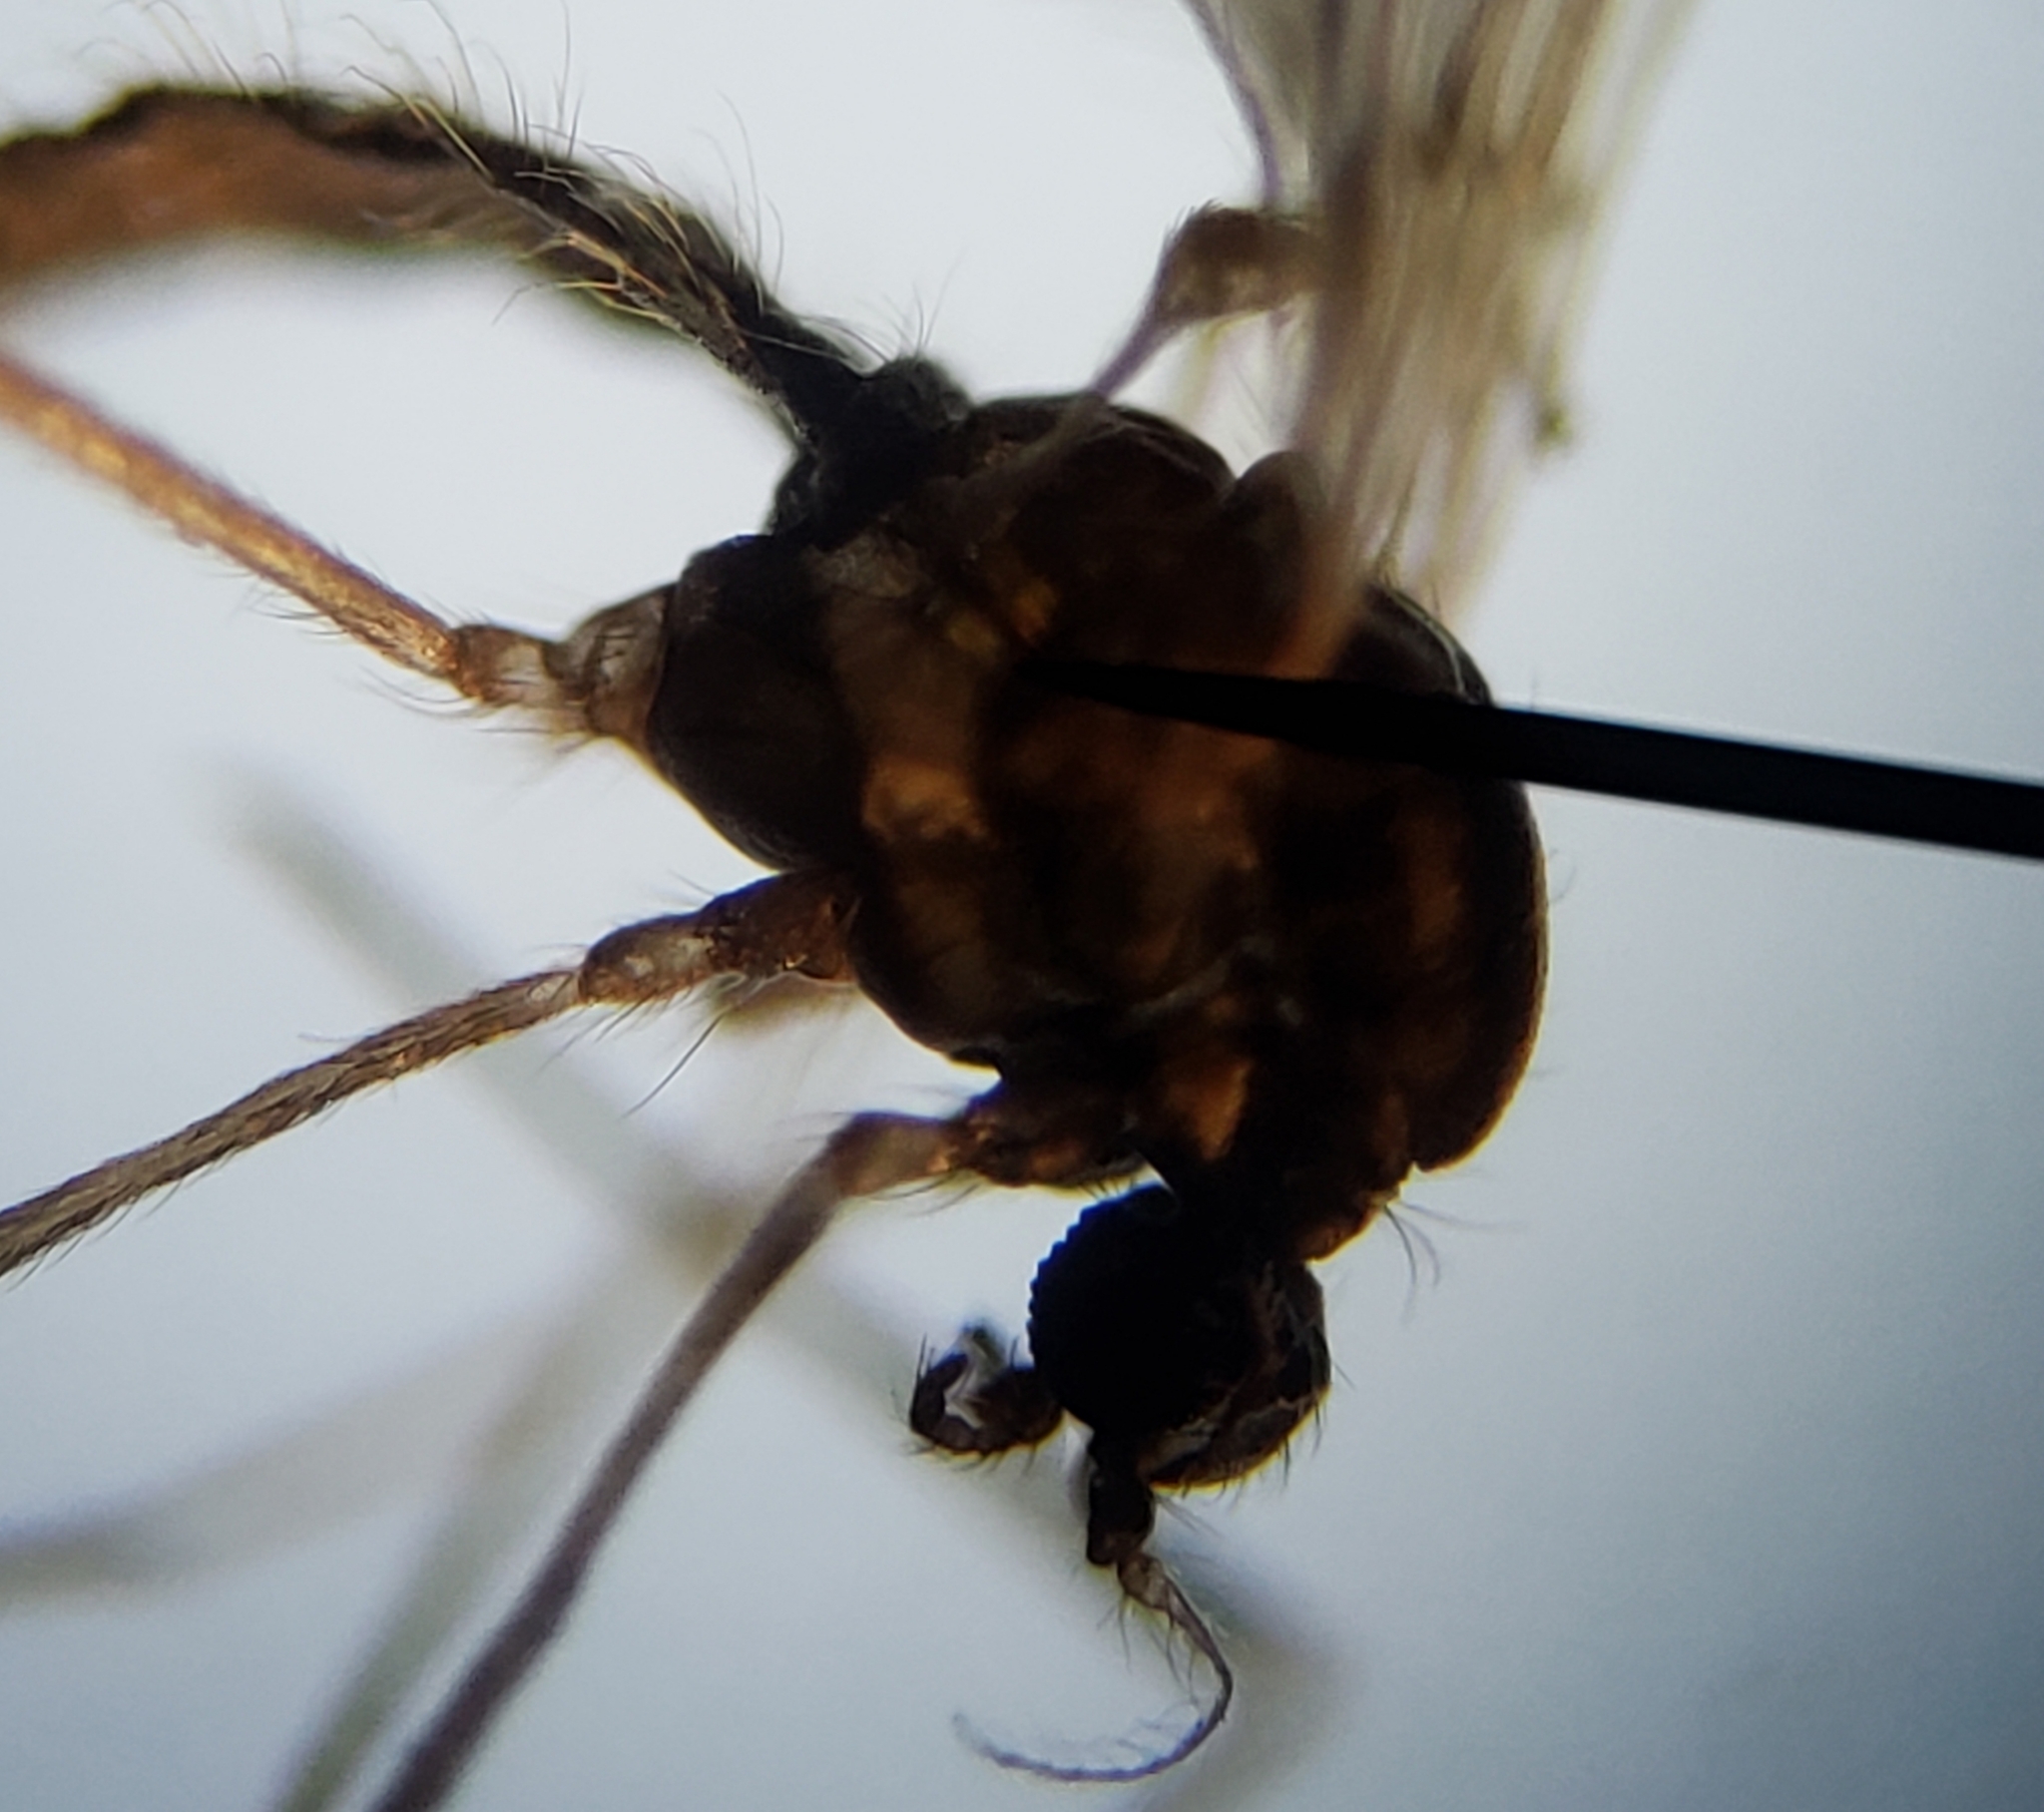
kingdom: Animalia
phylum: Arthropoda
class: Insecta
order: Diptera
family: Limoniidae
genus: Erioptera
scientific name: Erioptera parva
